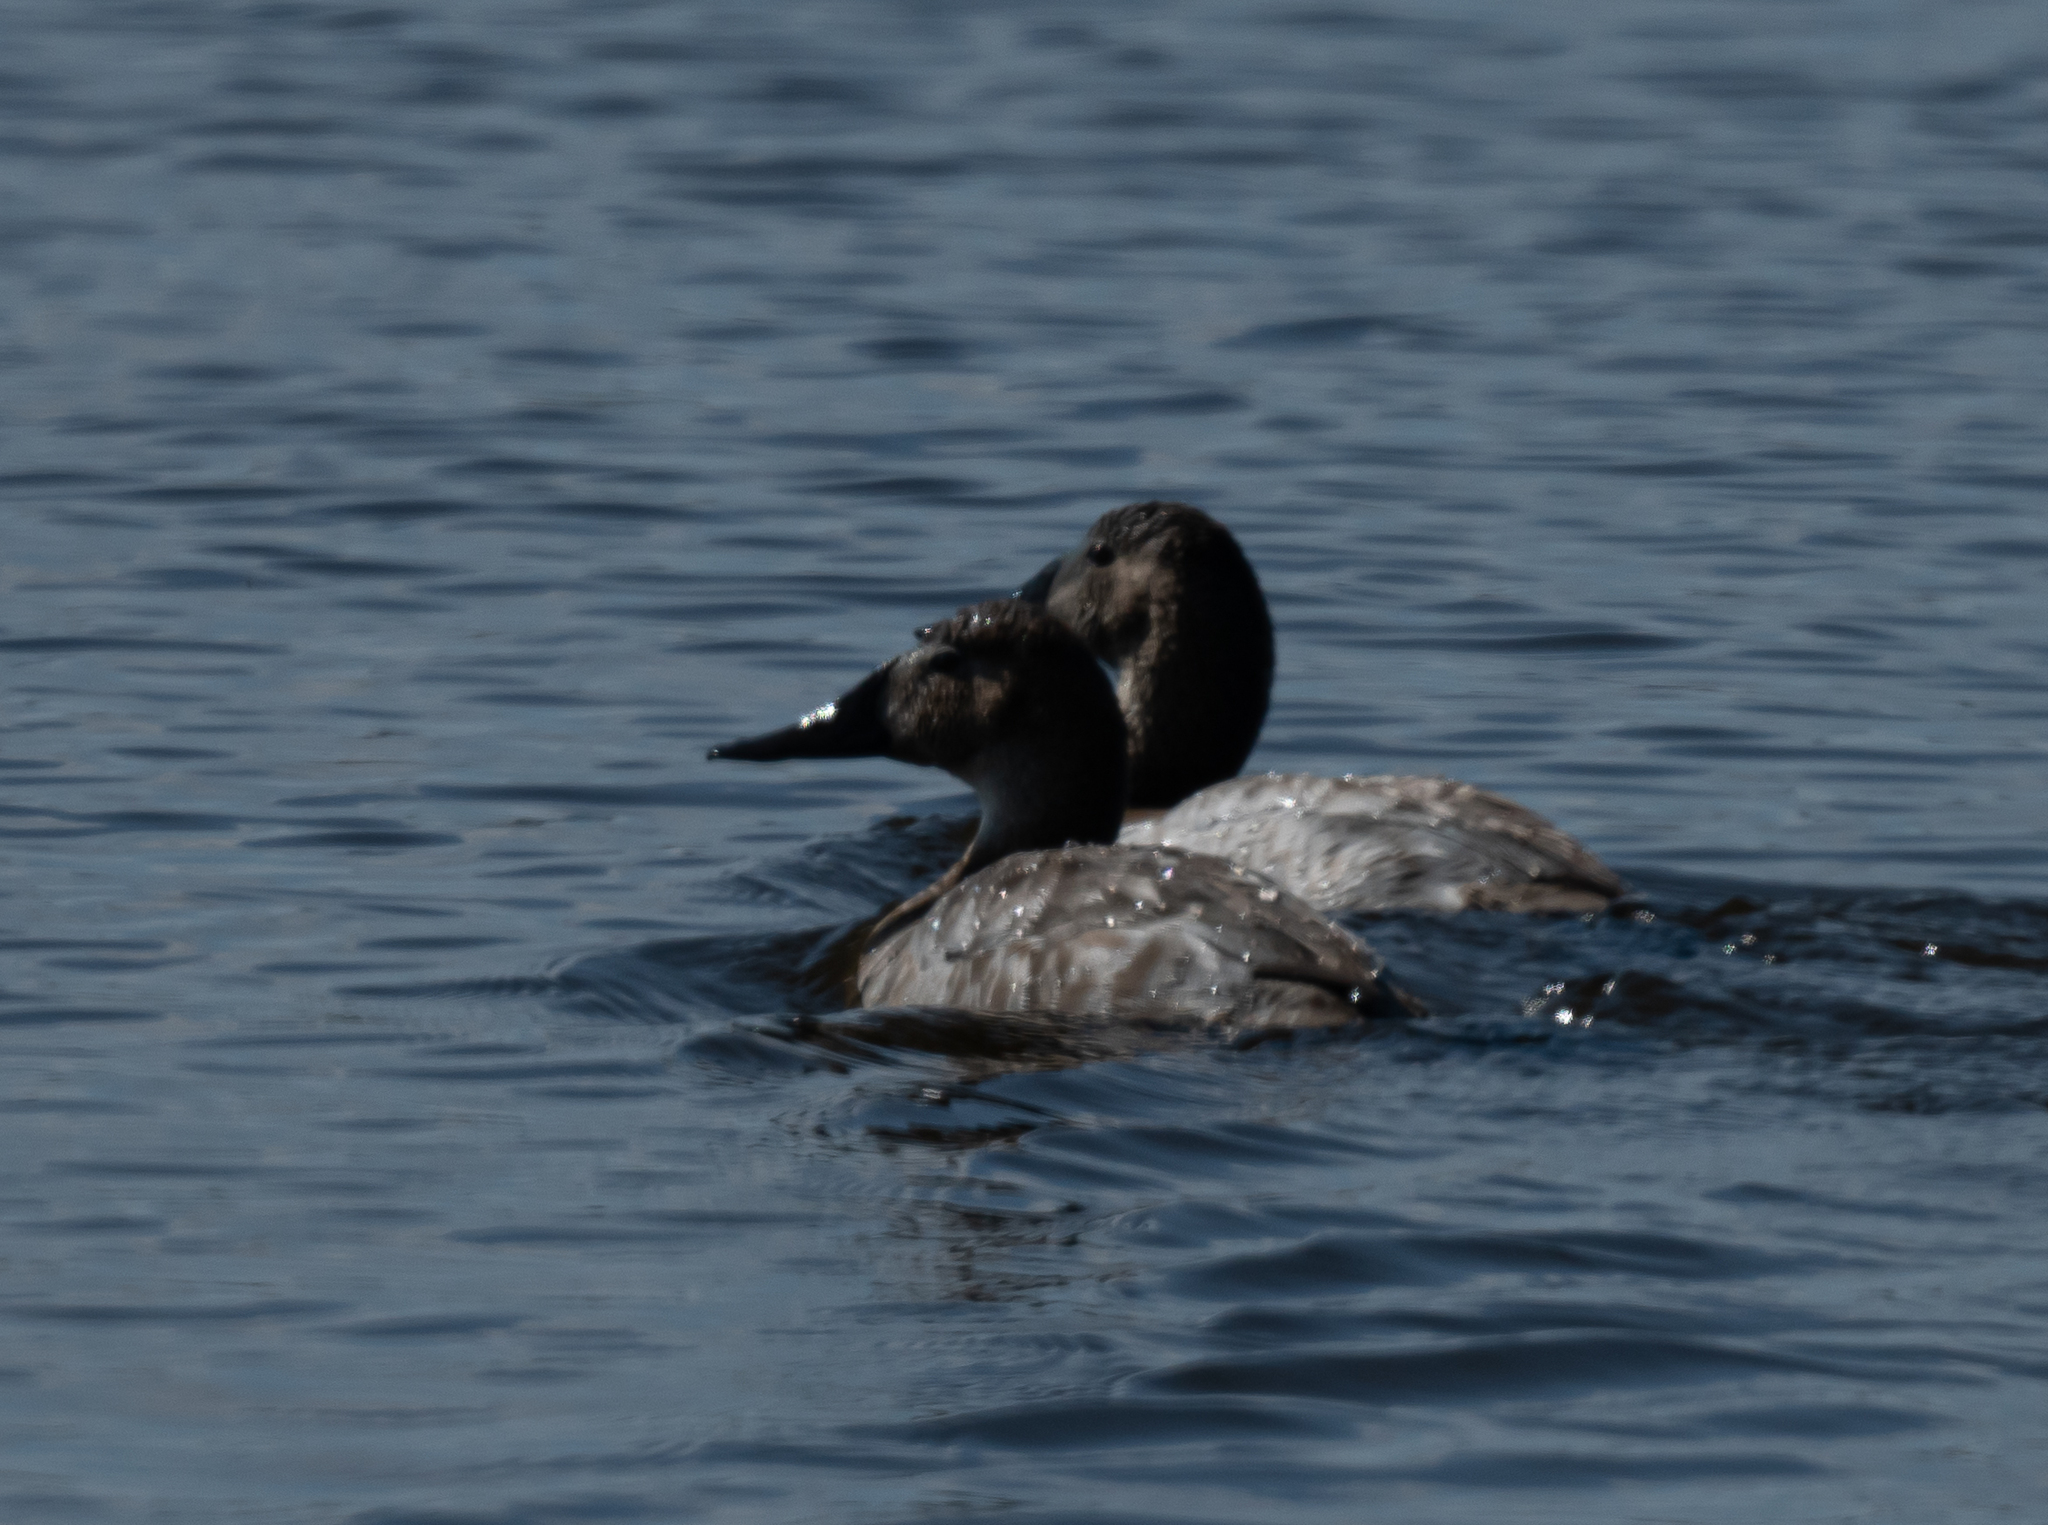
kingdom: Animalia
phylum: Chordata
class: Aves
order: Anseriformes
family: Anatidae
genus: Aythya
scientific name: Aythya valisineria
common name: Canvasback
